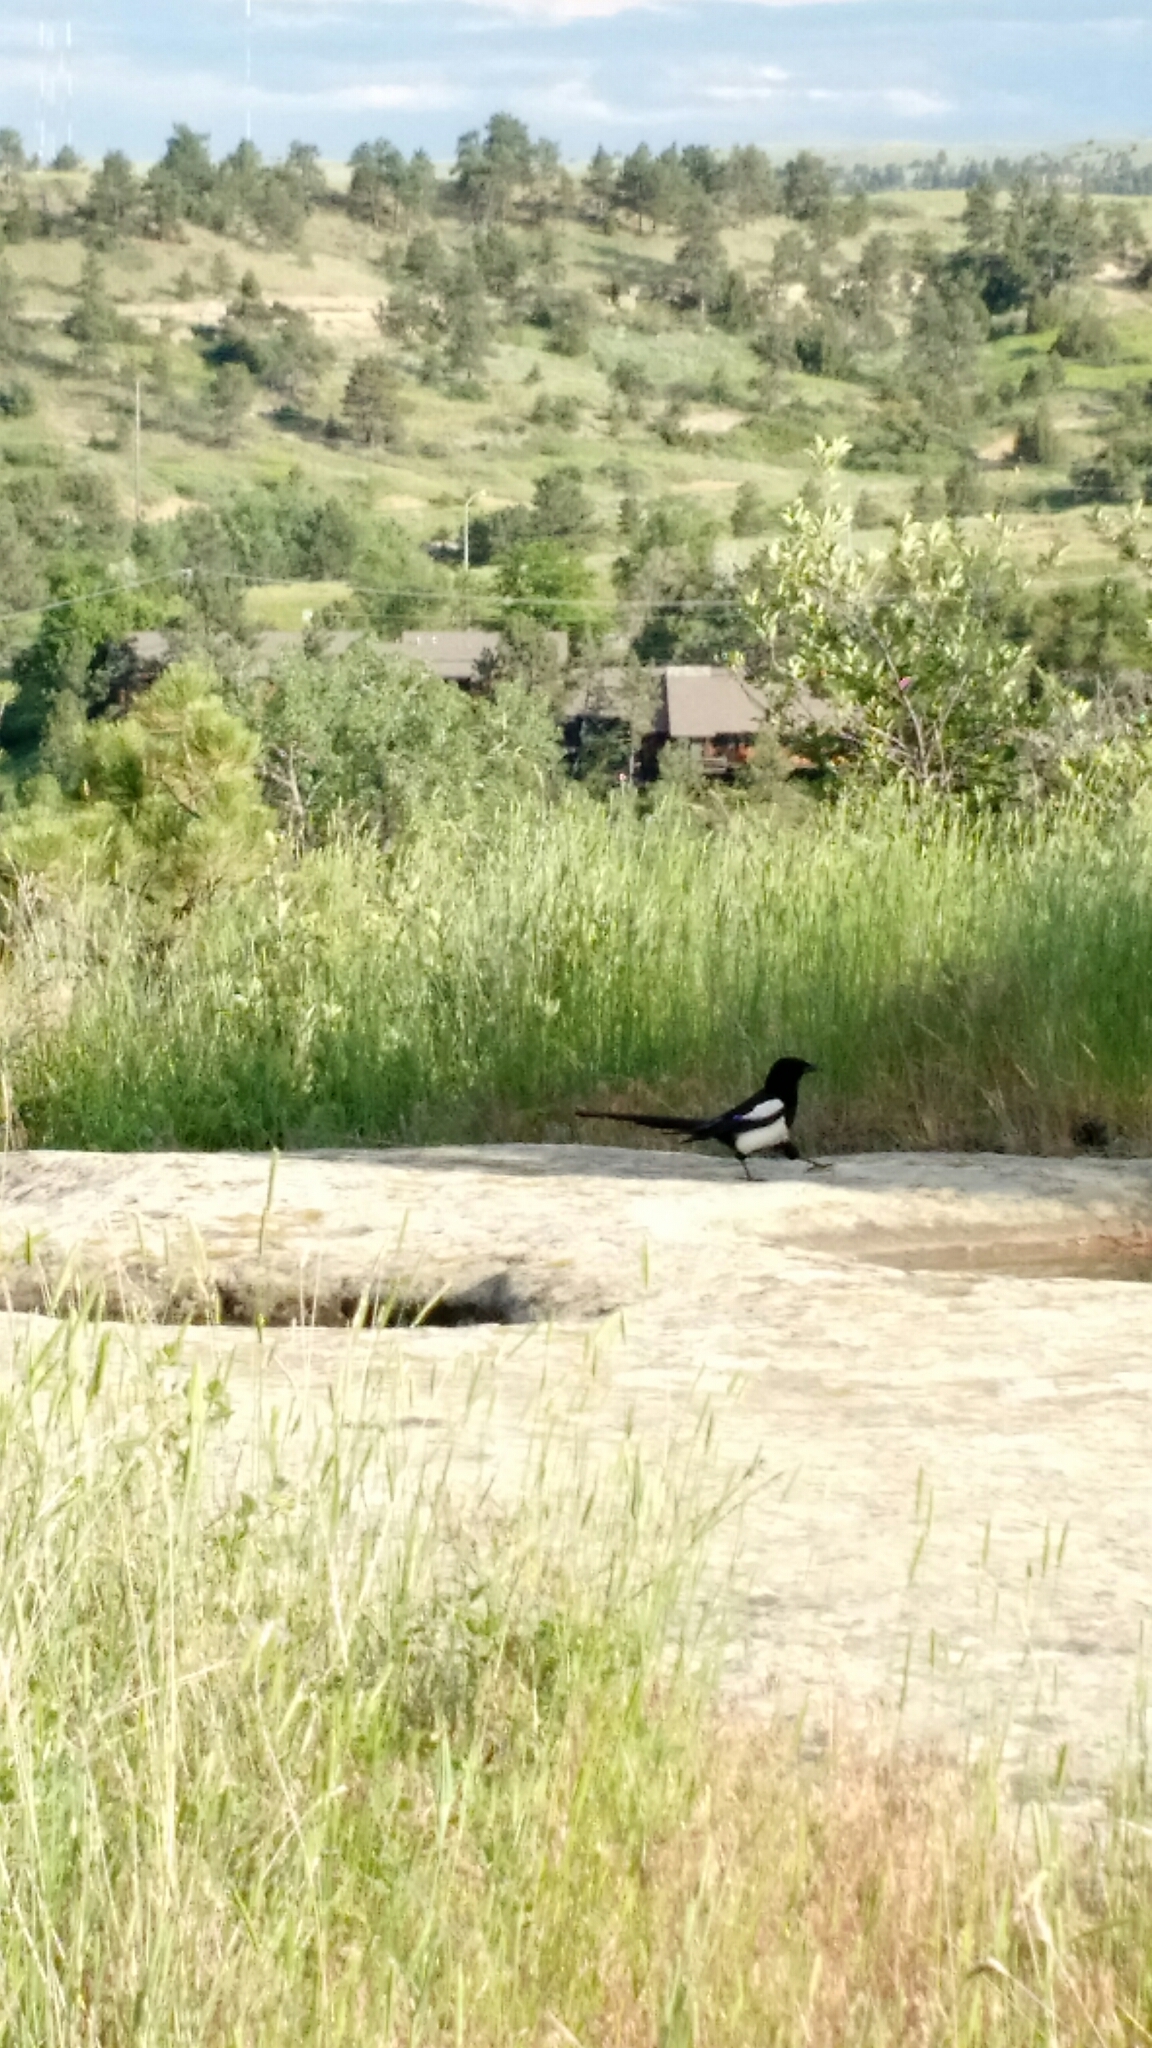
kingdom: Animalia
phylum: Chordata
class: Aves
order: Passeriformes
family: Corvidae
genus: Pica
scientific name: Pica hudsonia
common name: Black-billed magpie
